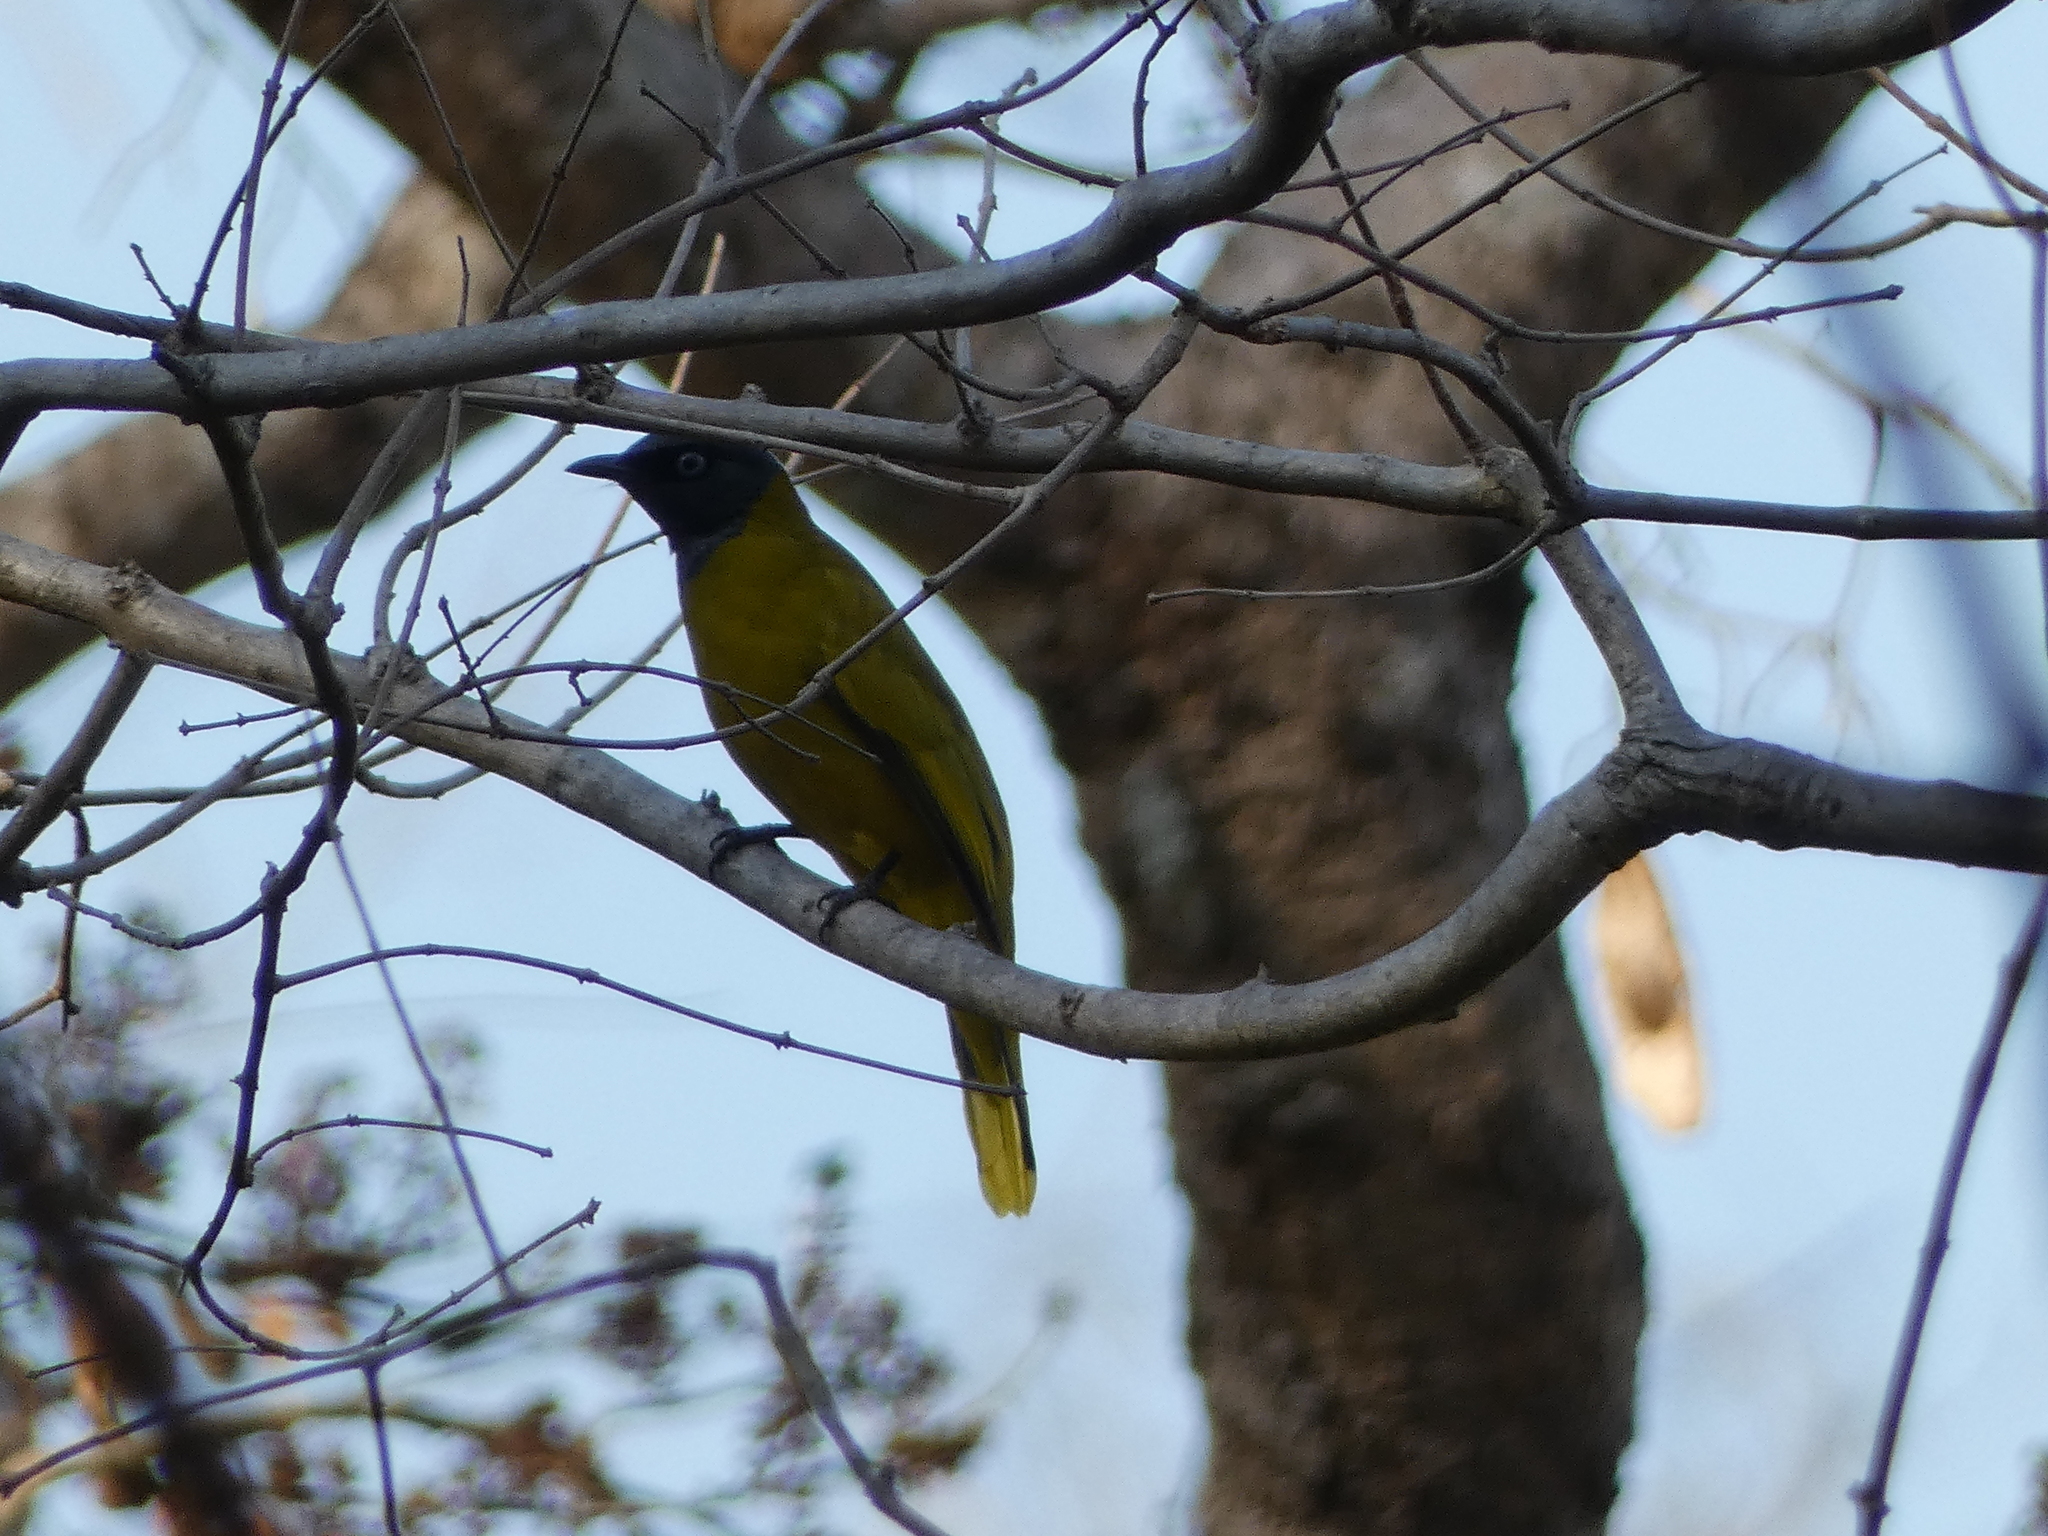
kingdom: Animalia
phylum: Chordata
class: Aves
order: Passeriformes
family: Pycnonotidae
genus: Microtarsus
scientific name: Microtarsus
